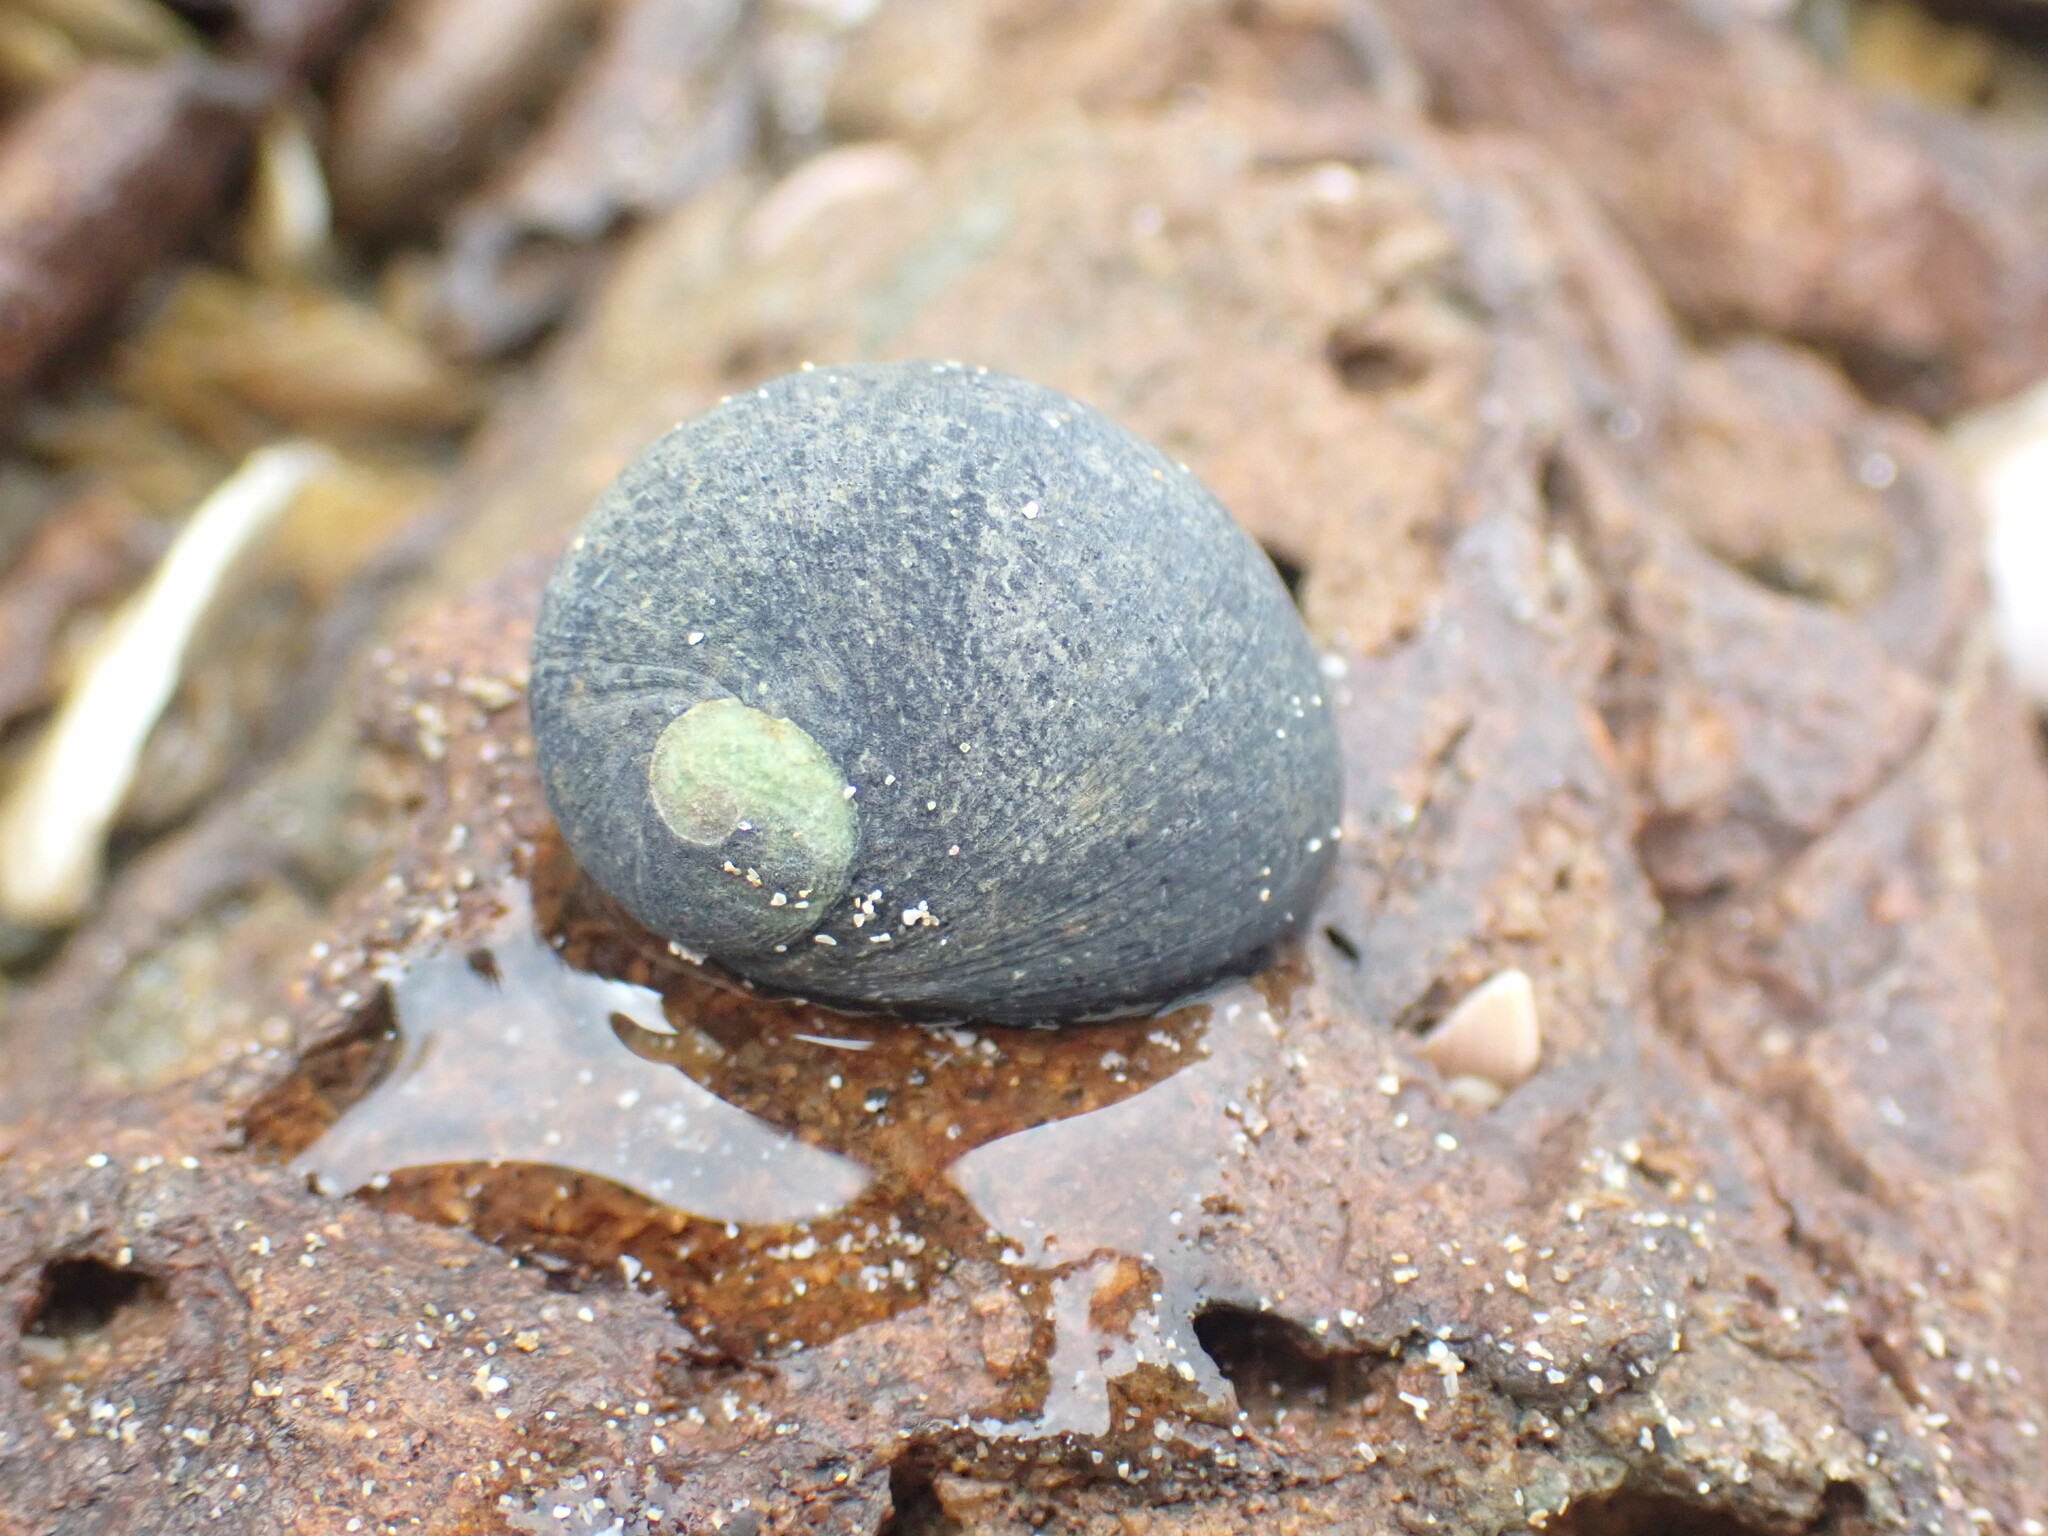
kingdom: Animalia
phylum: Mollusca
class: Gastropoda
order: Cycloneritida
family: Neritidae
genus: Nerita
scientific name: Nerita melanotragus
